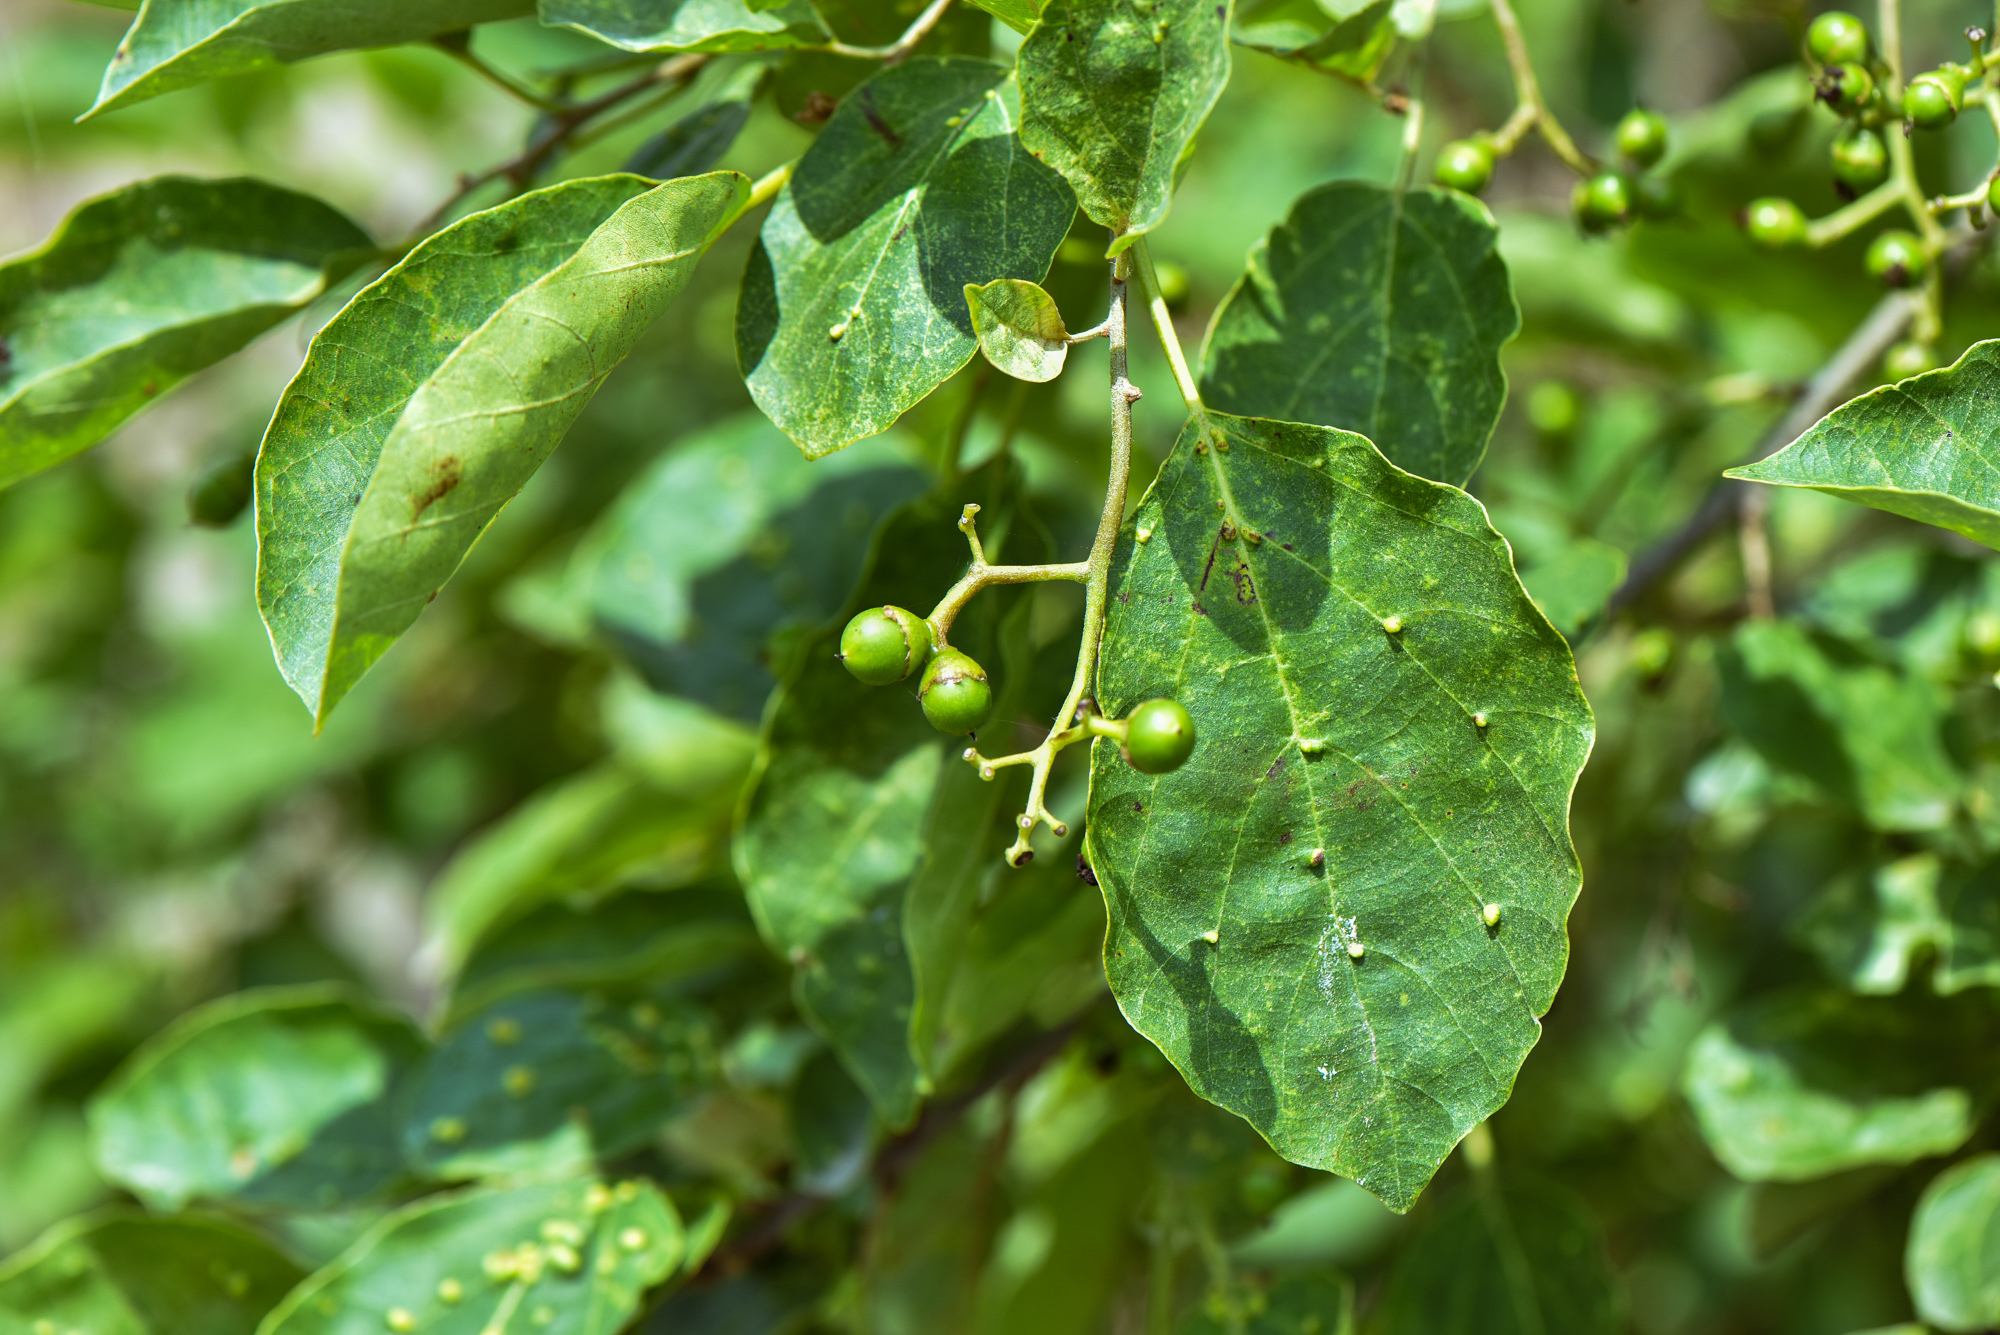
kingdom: Plantae
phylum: Tracheophyta
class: Magnoliopsida
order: Boraginales
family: Cordiaceae
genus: Cordia
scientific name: Cordia dichotoma
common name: Fragrant manjack
